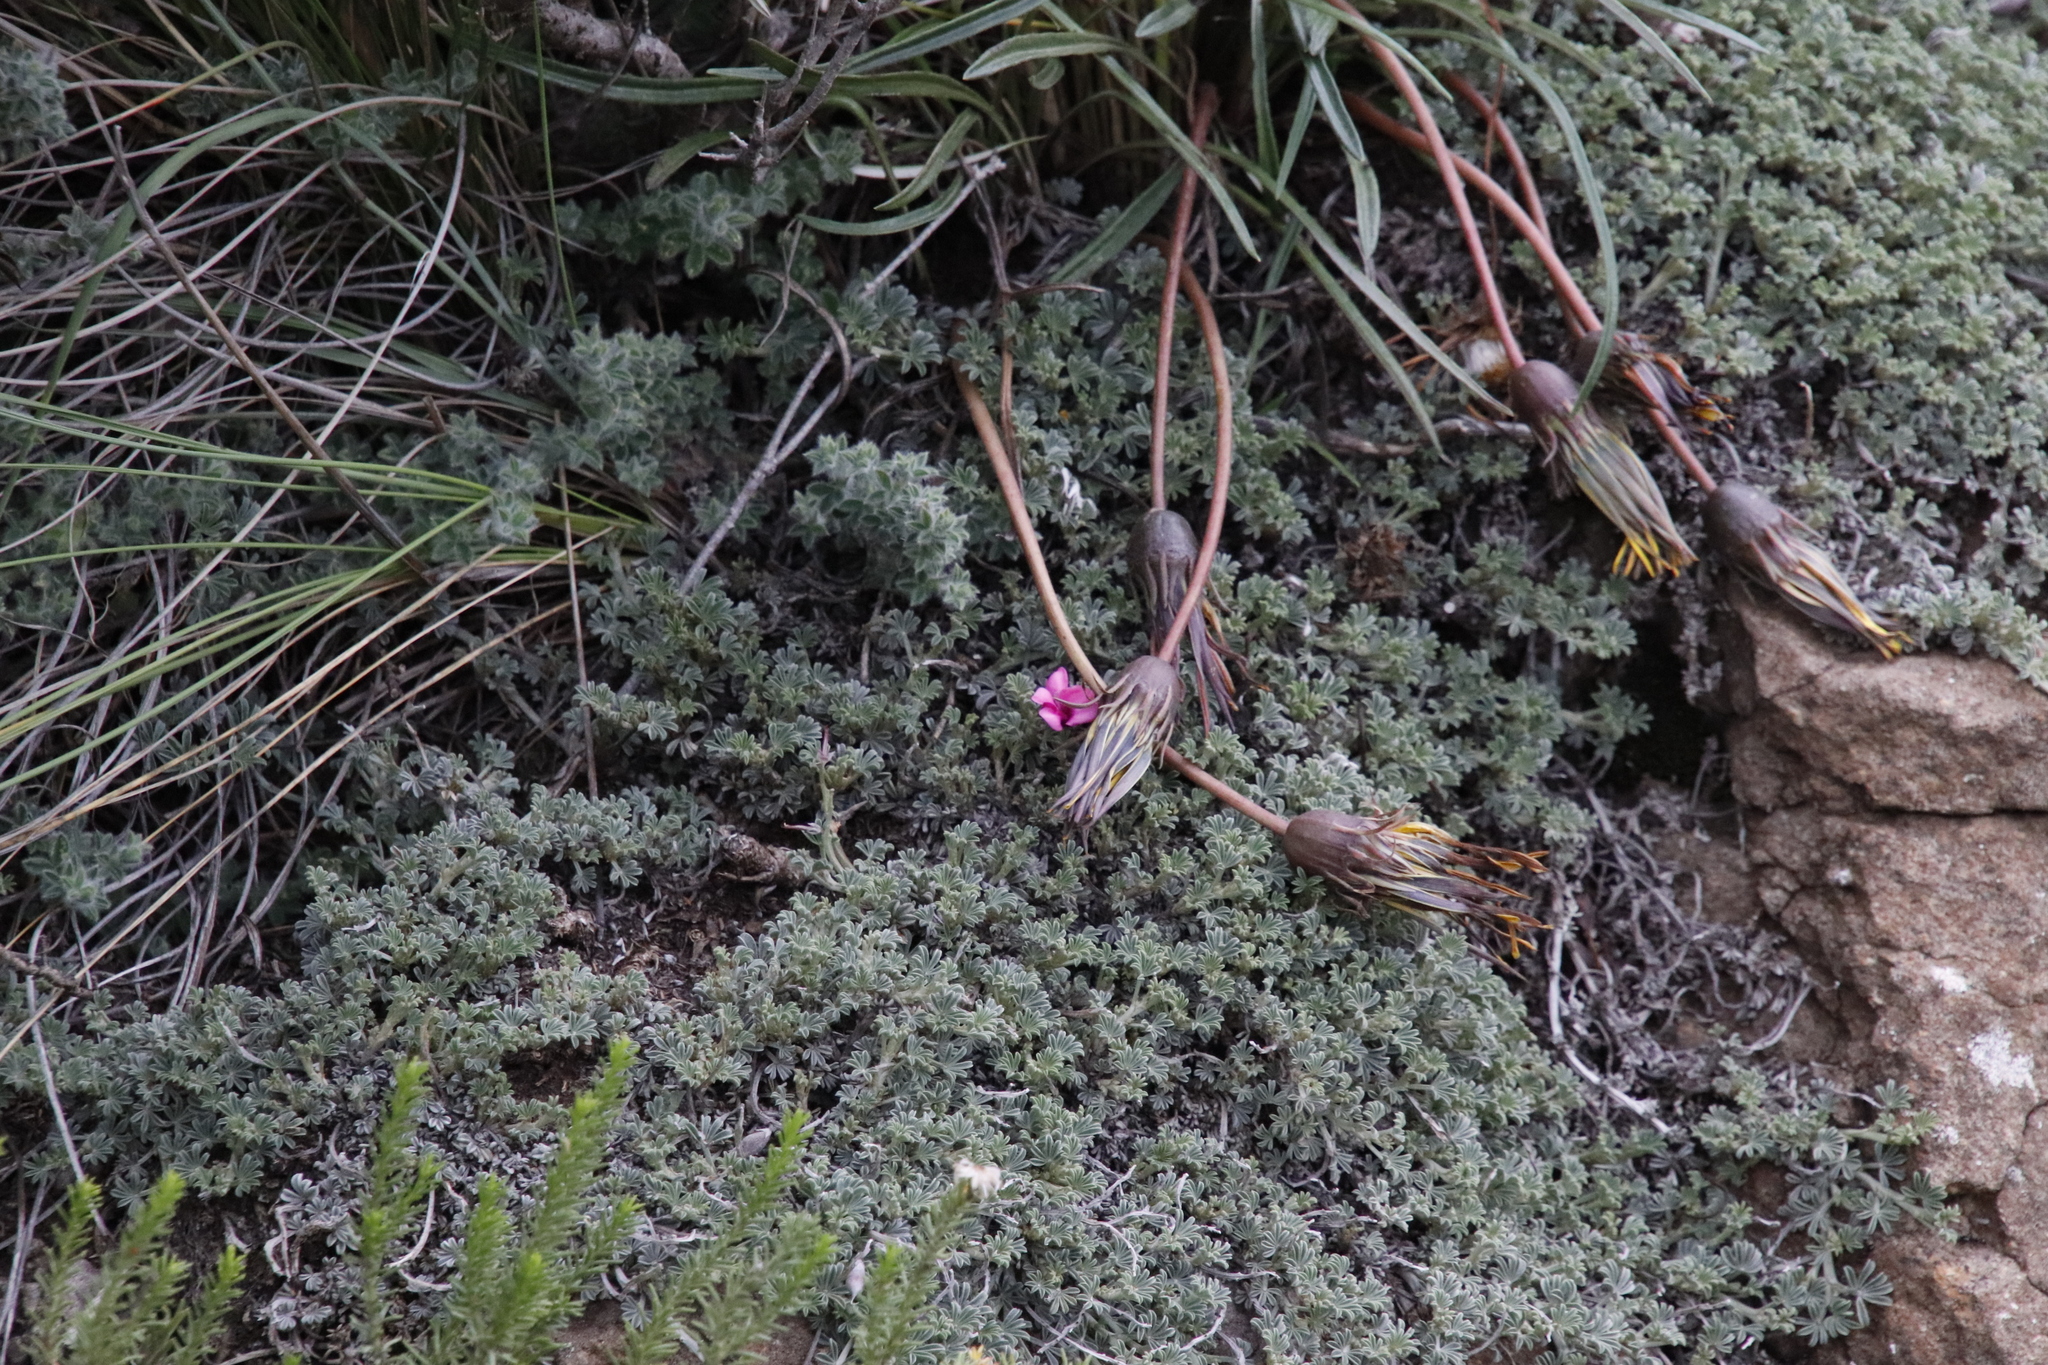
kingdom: Plantae
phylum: Tracheophyta
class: Magnoliopsida
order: Fabales
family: Fabaceae
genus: Indigofera
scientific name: Indigofera burchellii
